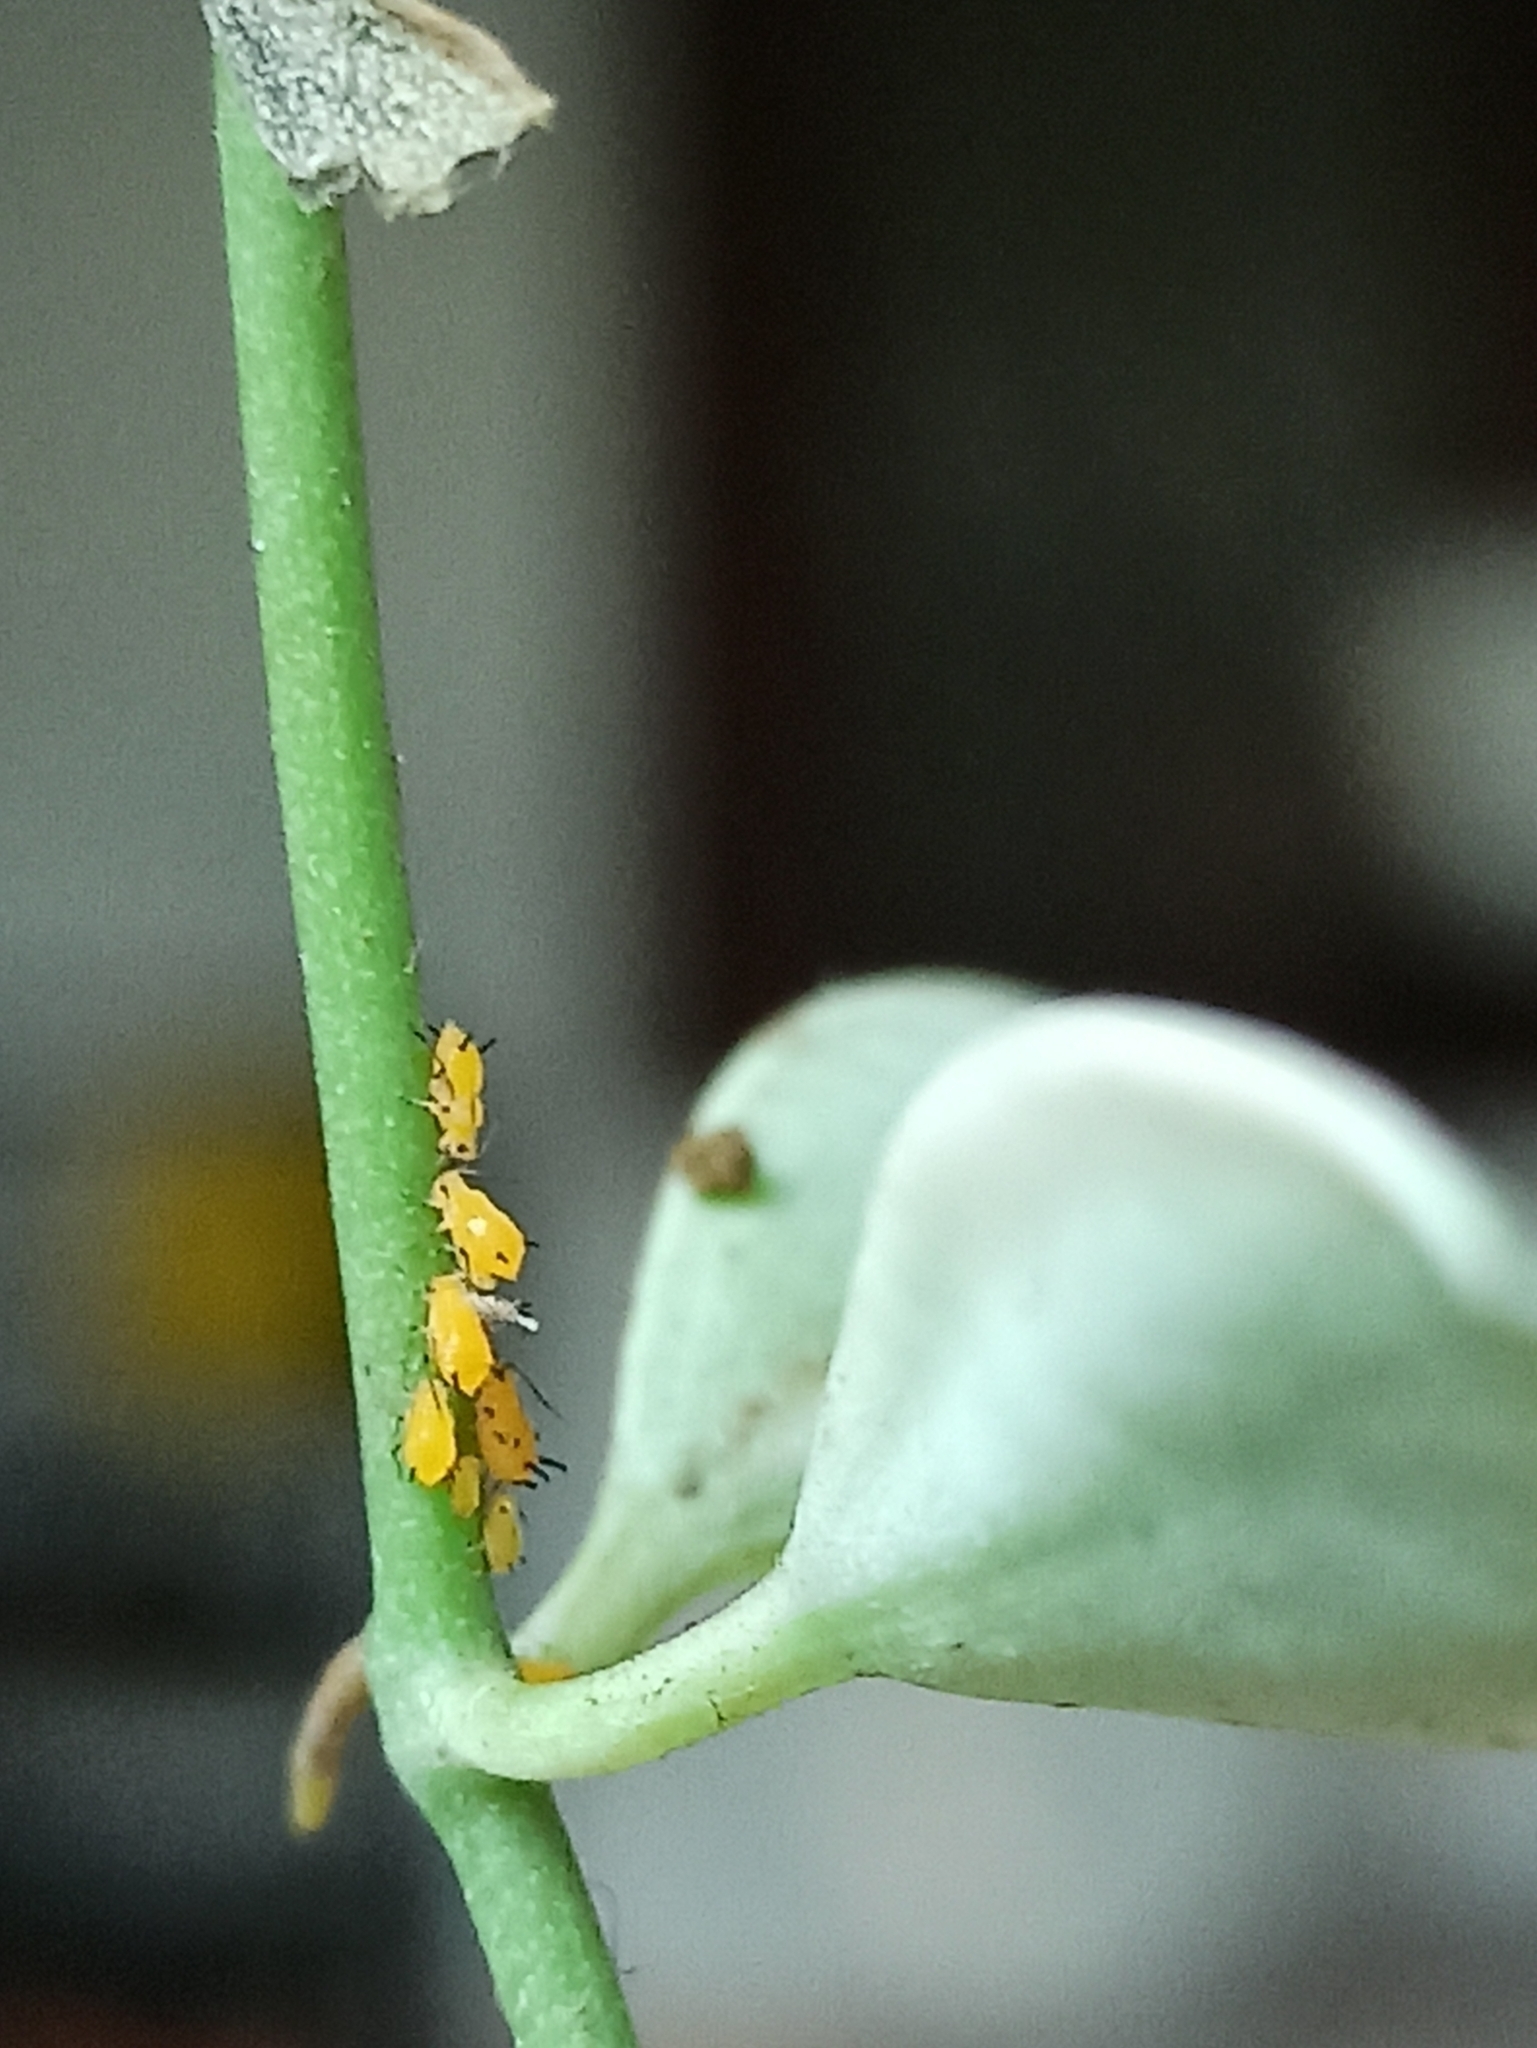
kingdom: Animalia
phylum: Arthropoda
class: Insecta
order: Hemiptera
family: Aphididae
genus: Aphis
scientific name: Aphis nerii
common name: Oleander aphid
